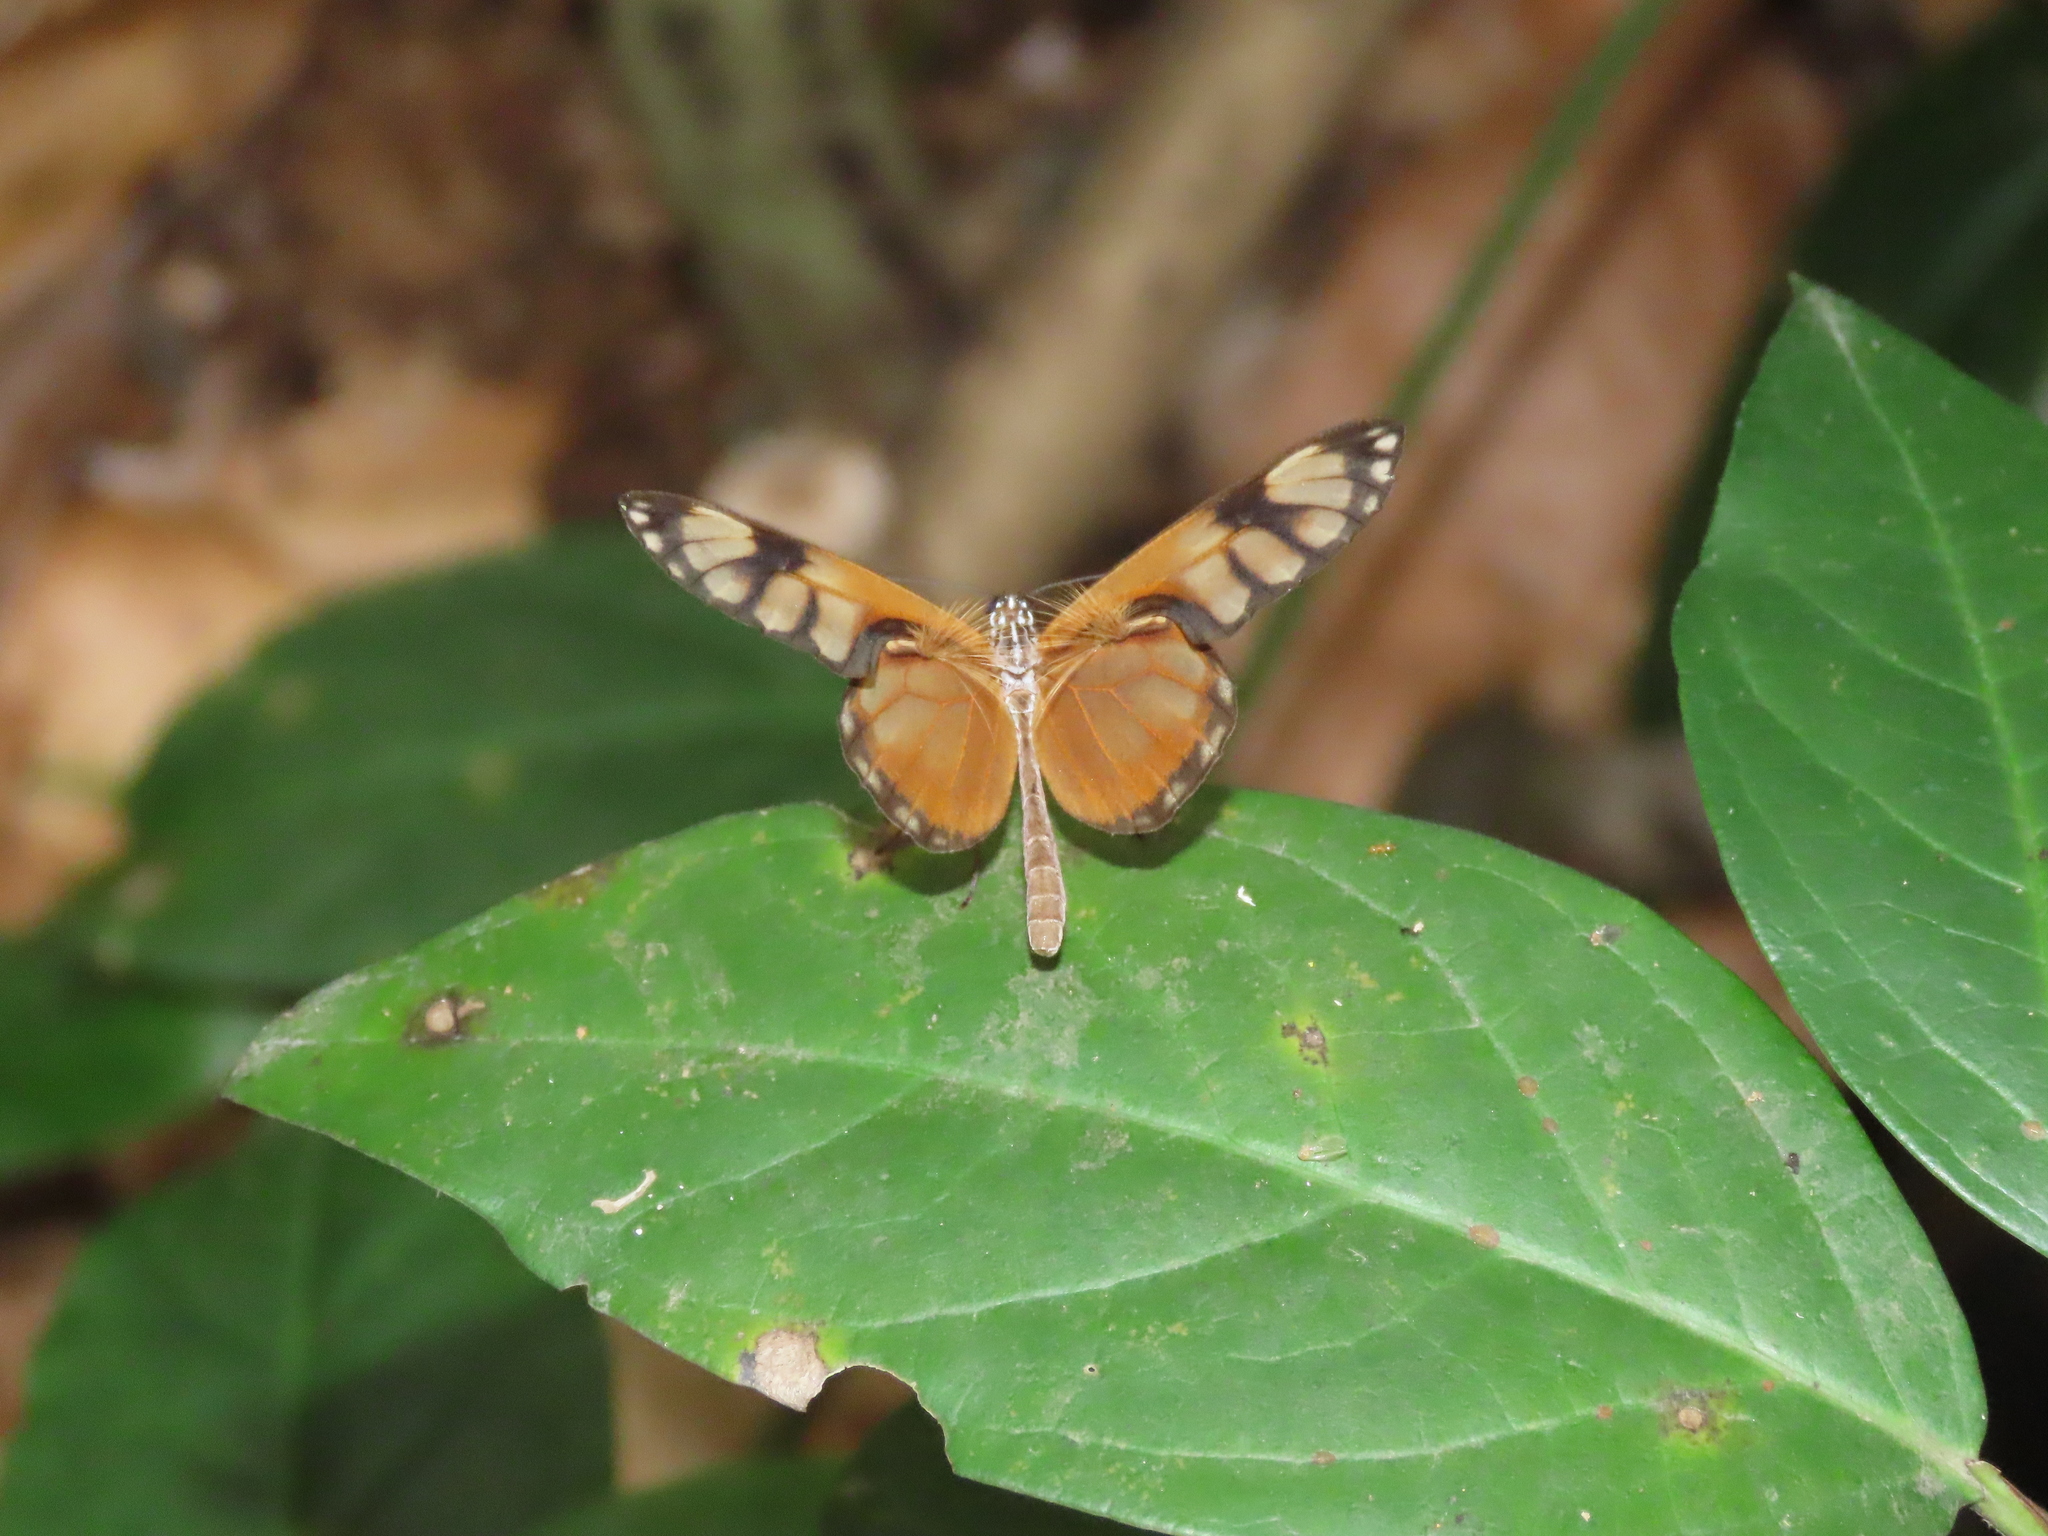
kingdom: Animalia
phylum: Arthropoda
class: Insecta
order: Lepidoptera
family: Nymphalidae
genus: Hypoleria
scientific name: Hypoleria ocalea
